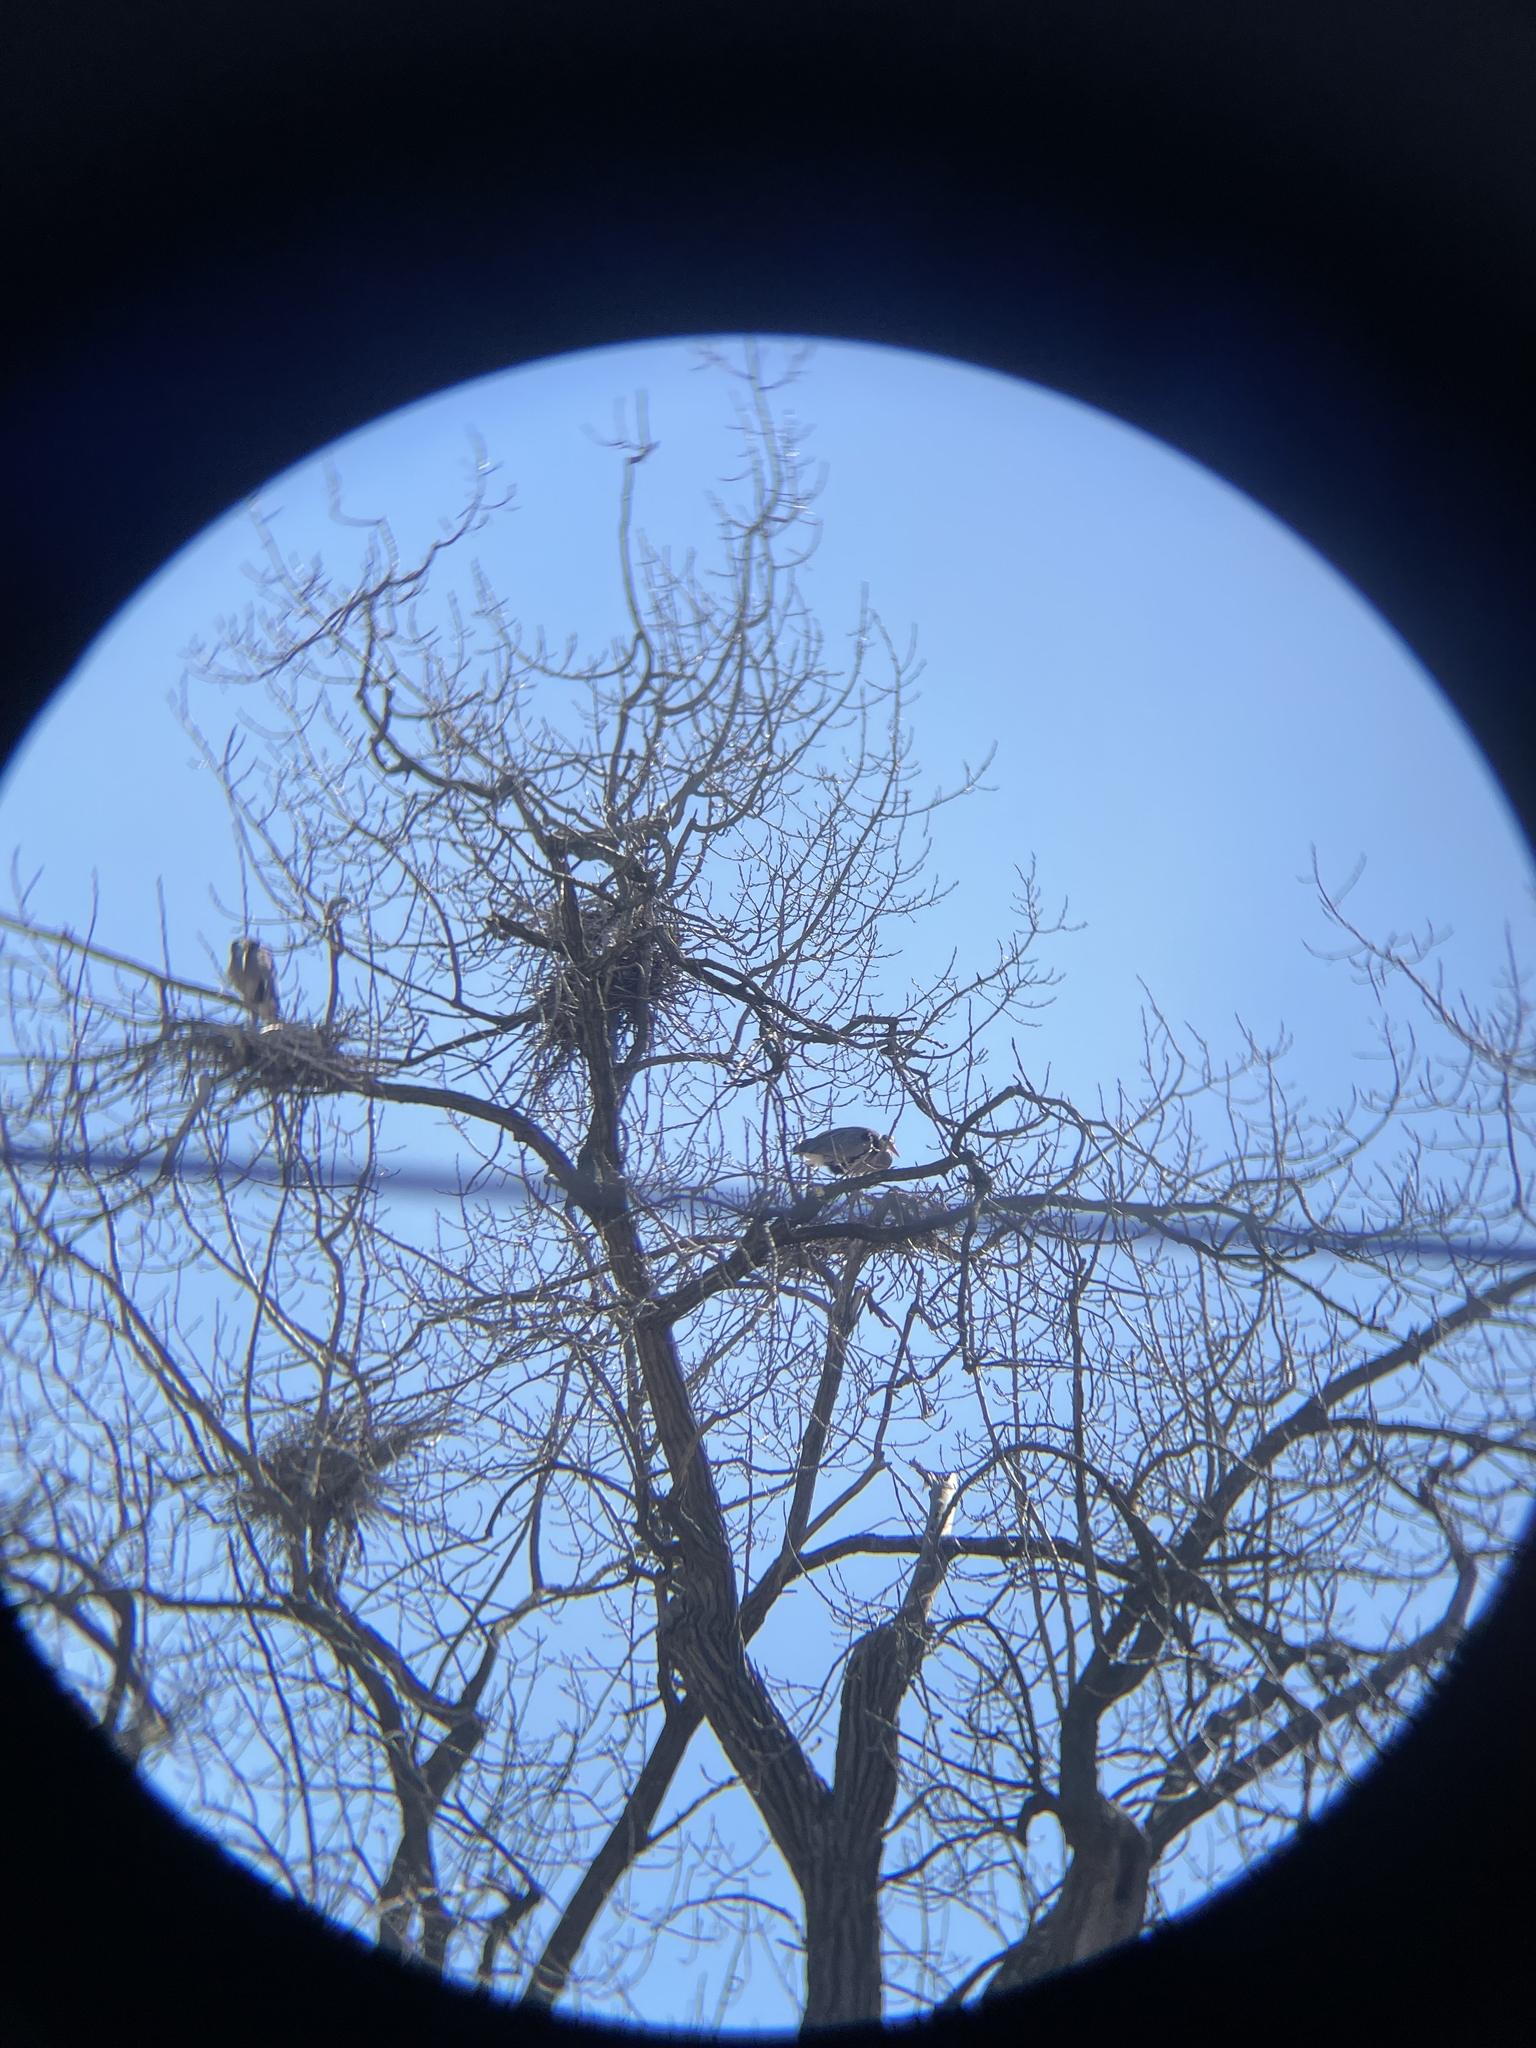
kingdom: Animalia
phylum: Chordata
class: Aves
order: Pelecaniformes
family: Ardeidae
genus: Ardea
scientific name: Ardea herodias
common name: Great blue heron
